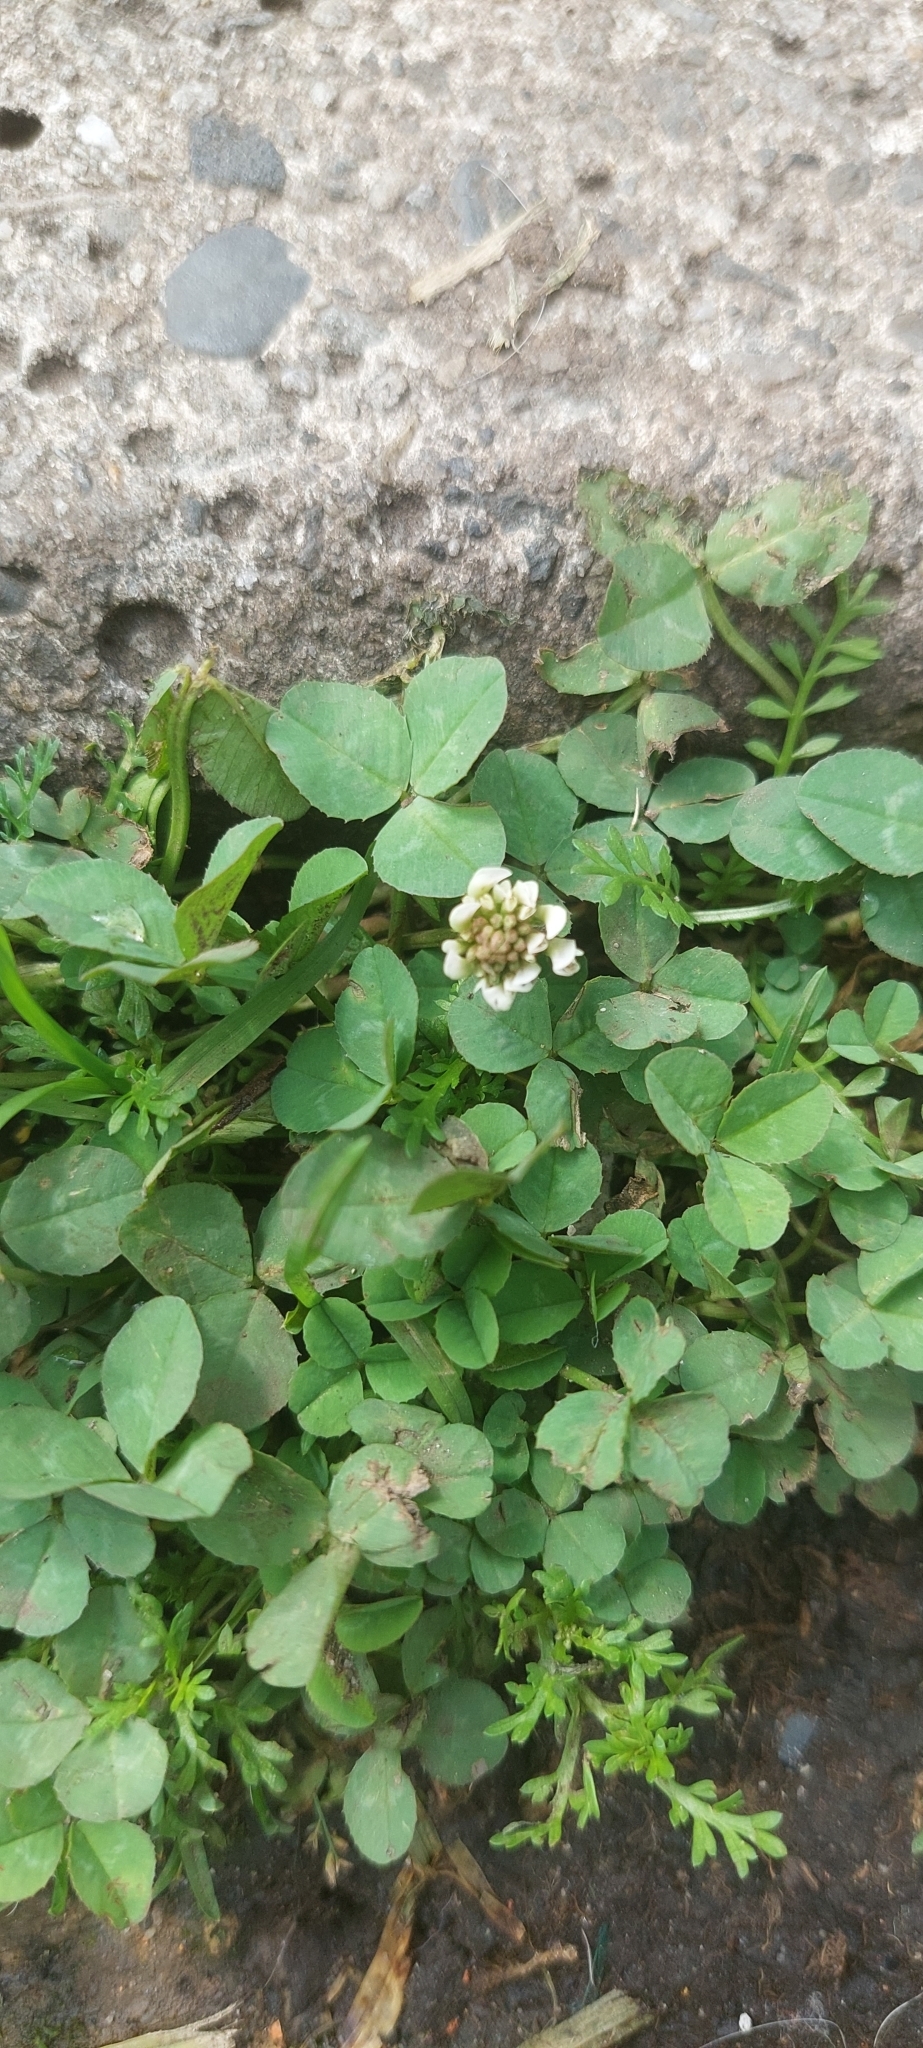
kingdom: Plantae
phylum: Tracheophyta
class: Magnoliopsida
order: Fabales
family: Fabaceae
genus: Trifolium
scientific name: Trifolium repens
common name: White clover
